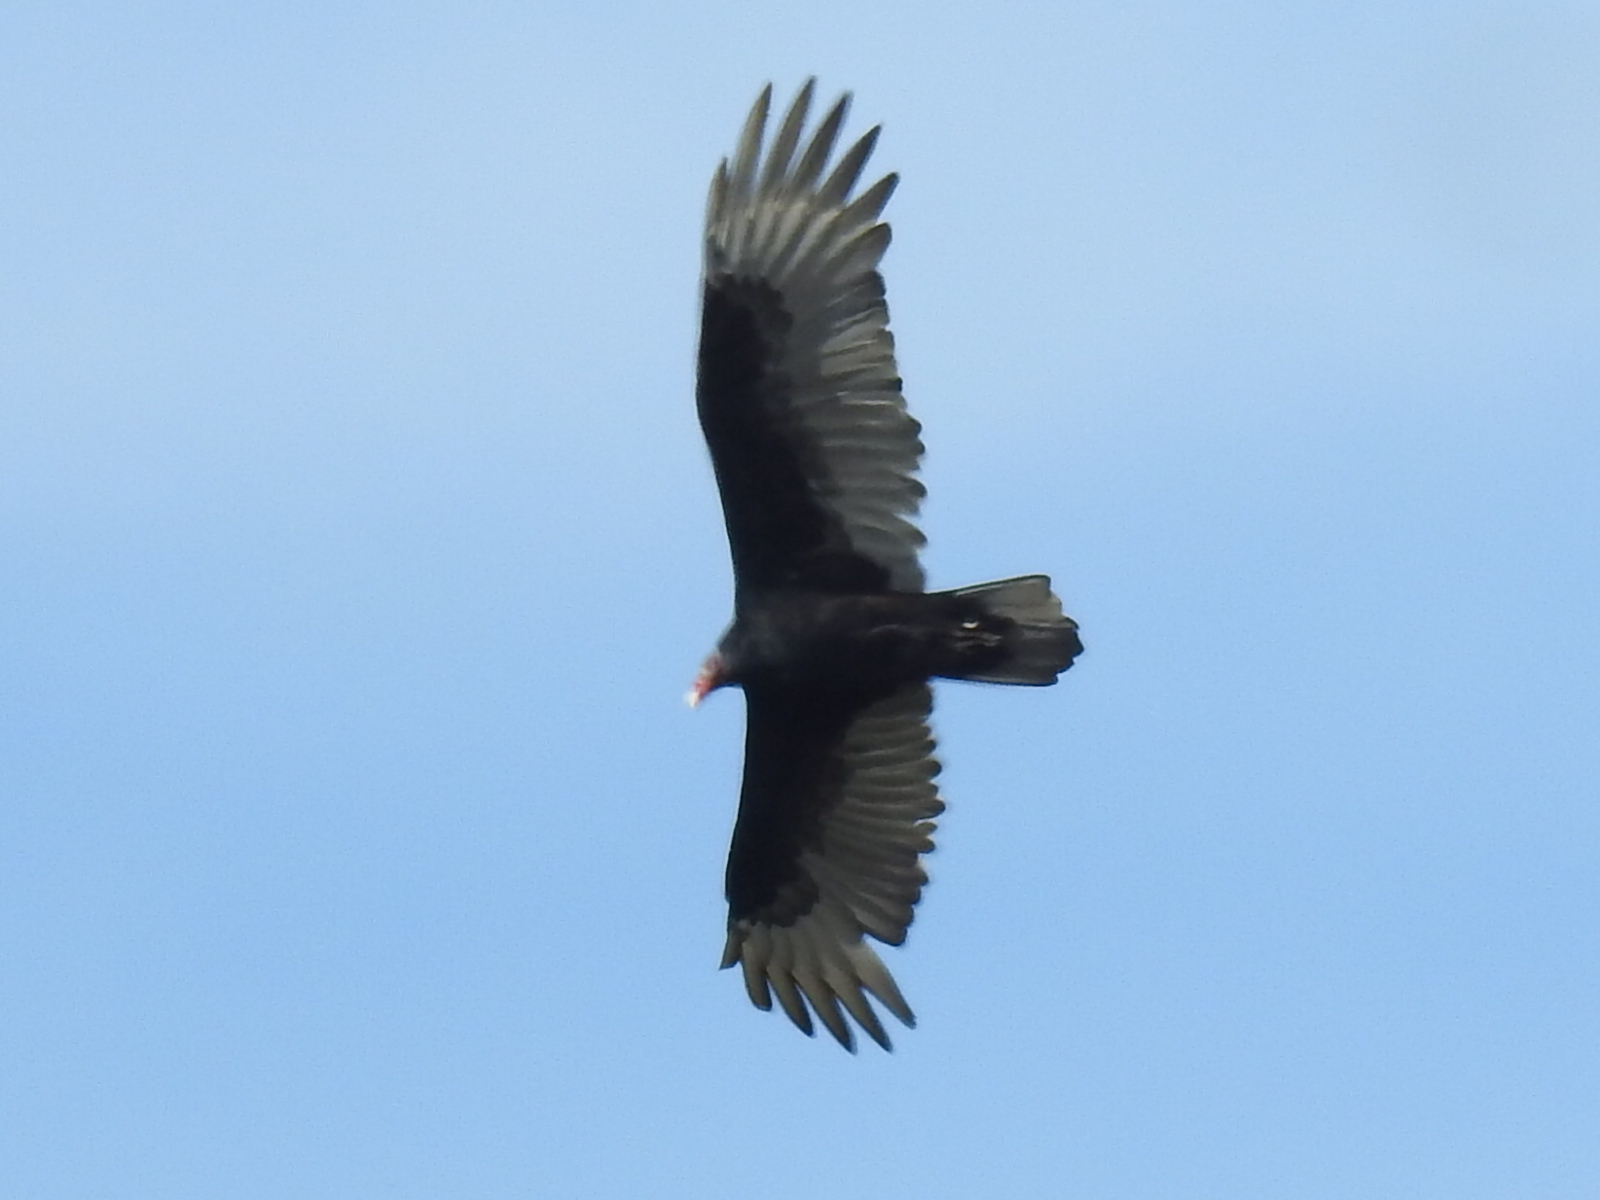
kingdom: Animalia
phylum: Chordata
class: Aves
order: Accipitriformes
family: Cathartidae
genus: Cathartes
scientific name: Cathartes aura
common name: Turkey vulture
